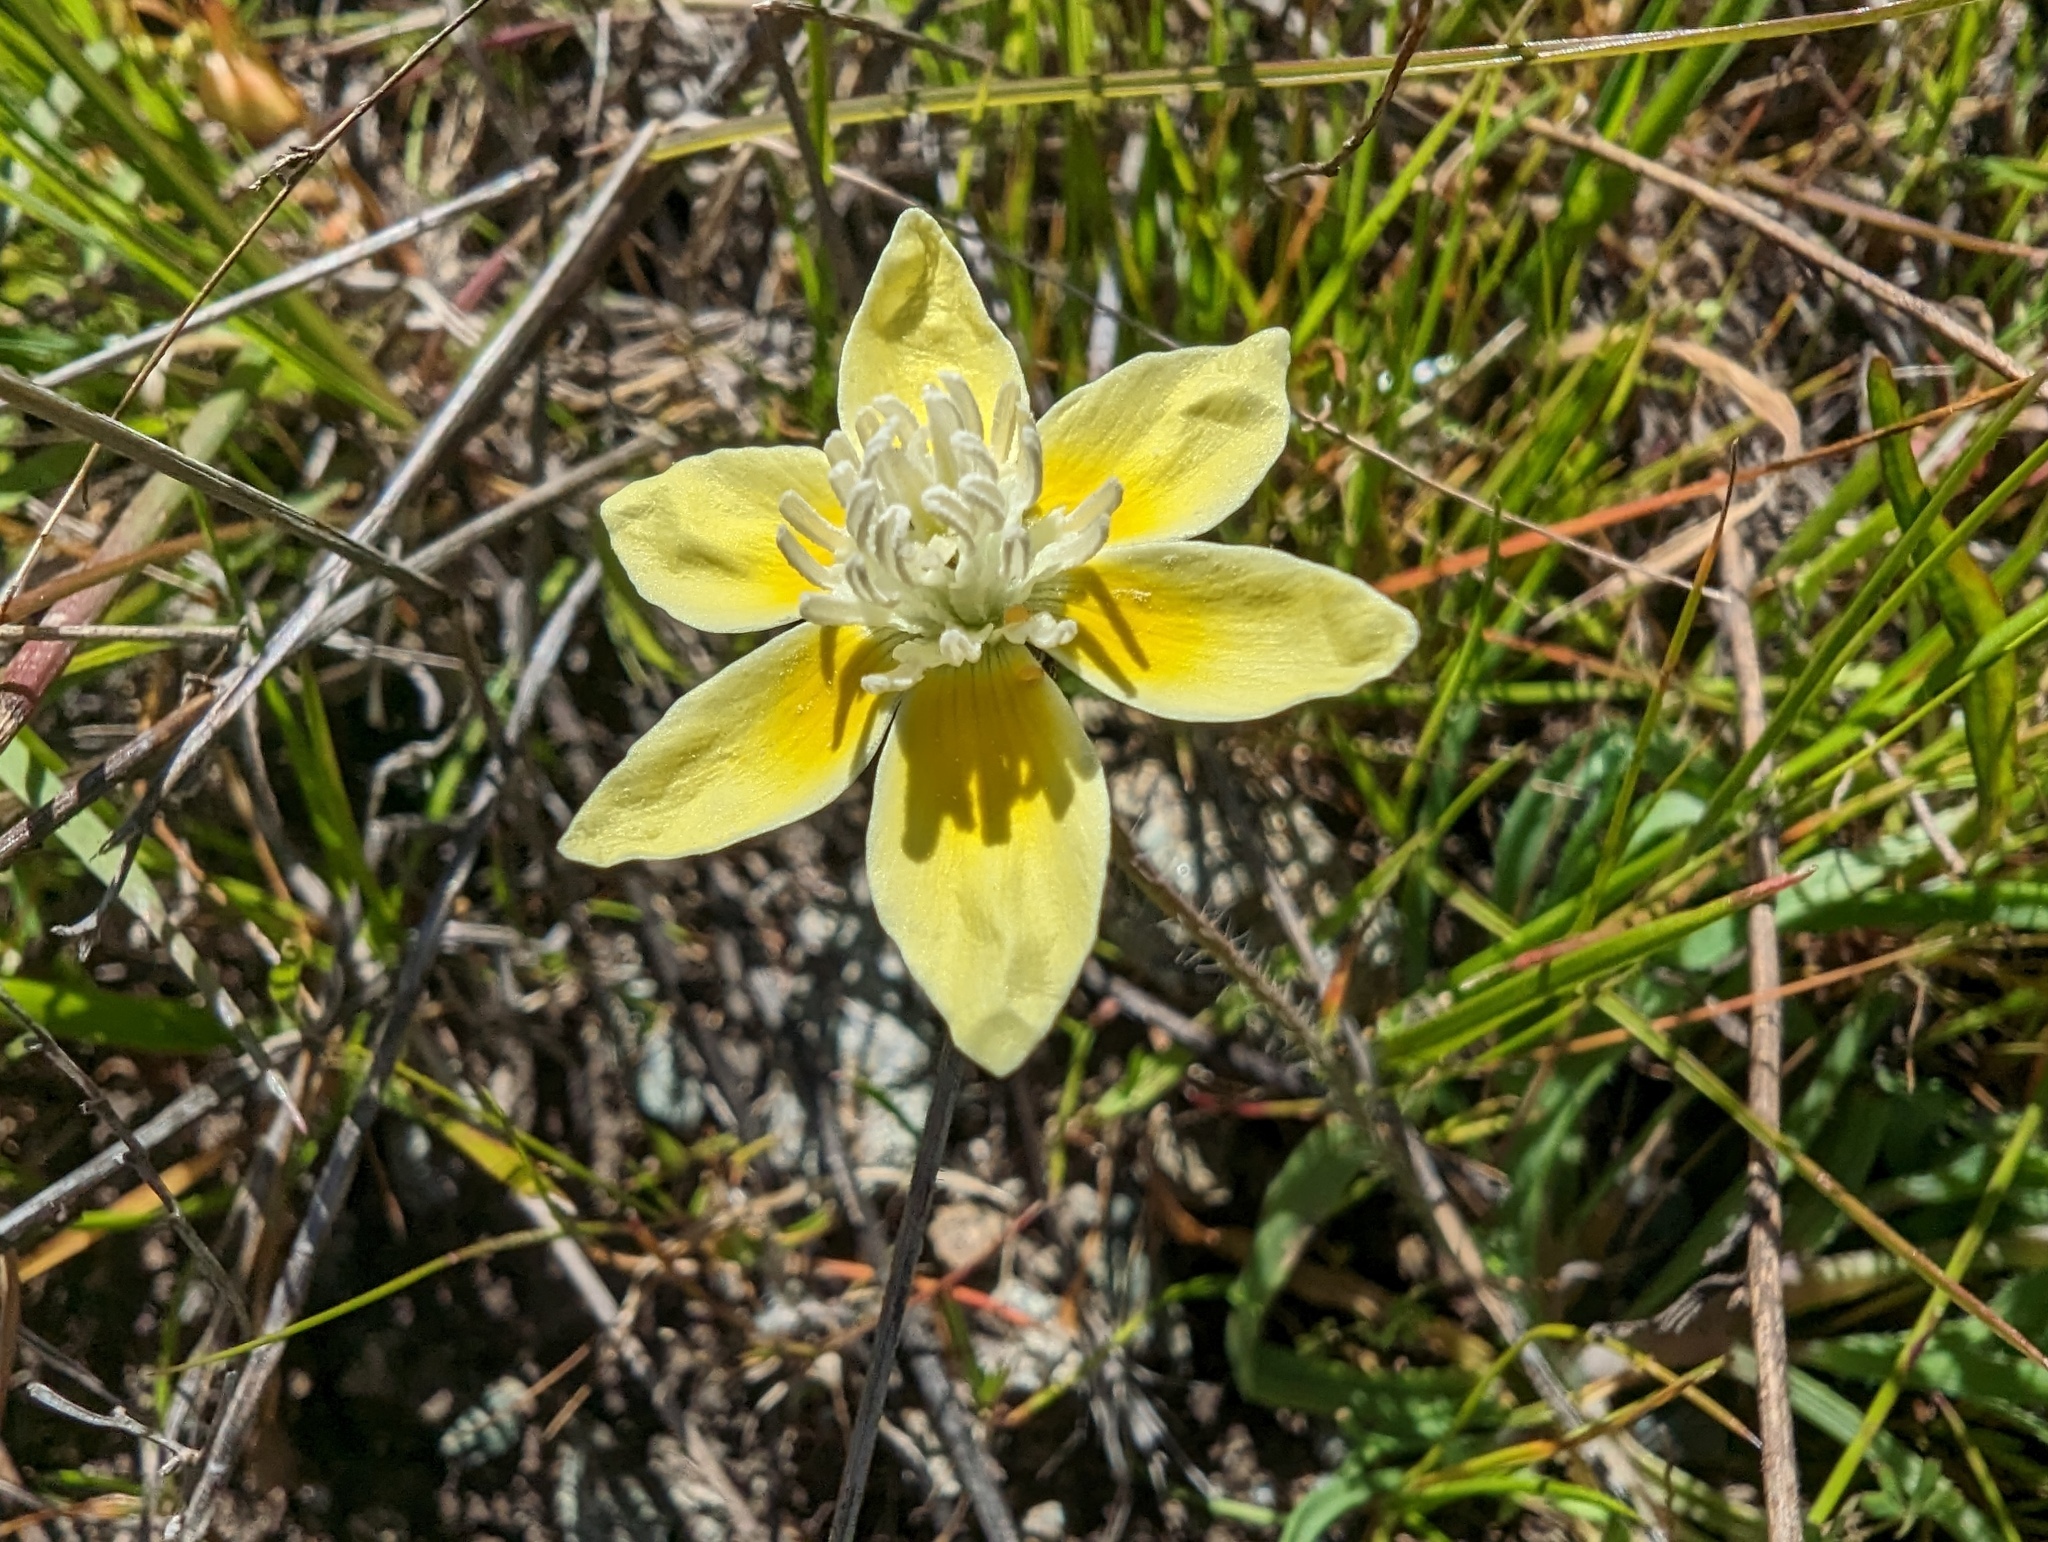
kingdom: Plantae
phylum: Tracheophyta
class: Magnoliopsida
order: Ranunculales
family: Papaveraceae
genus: Platystemon
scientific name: Platystemon californicus
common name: Cream-cups
